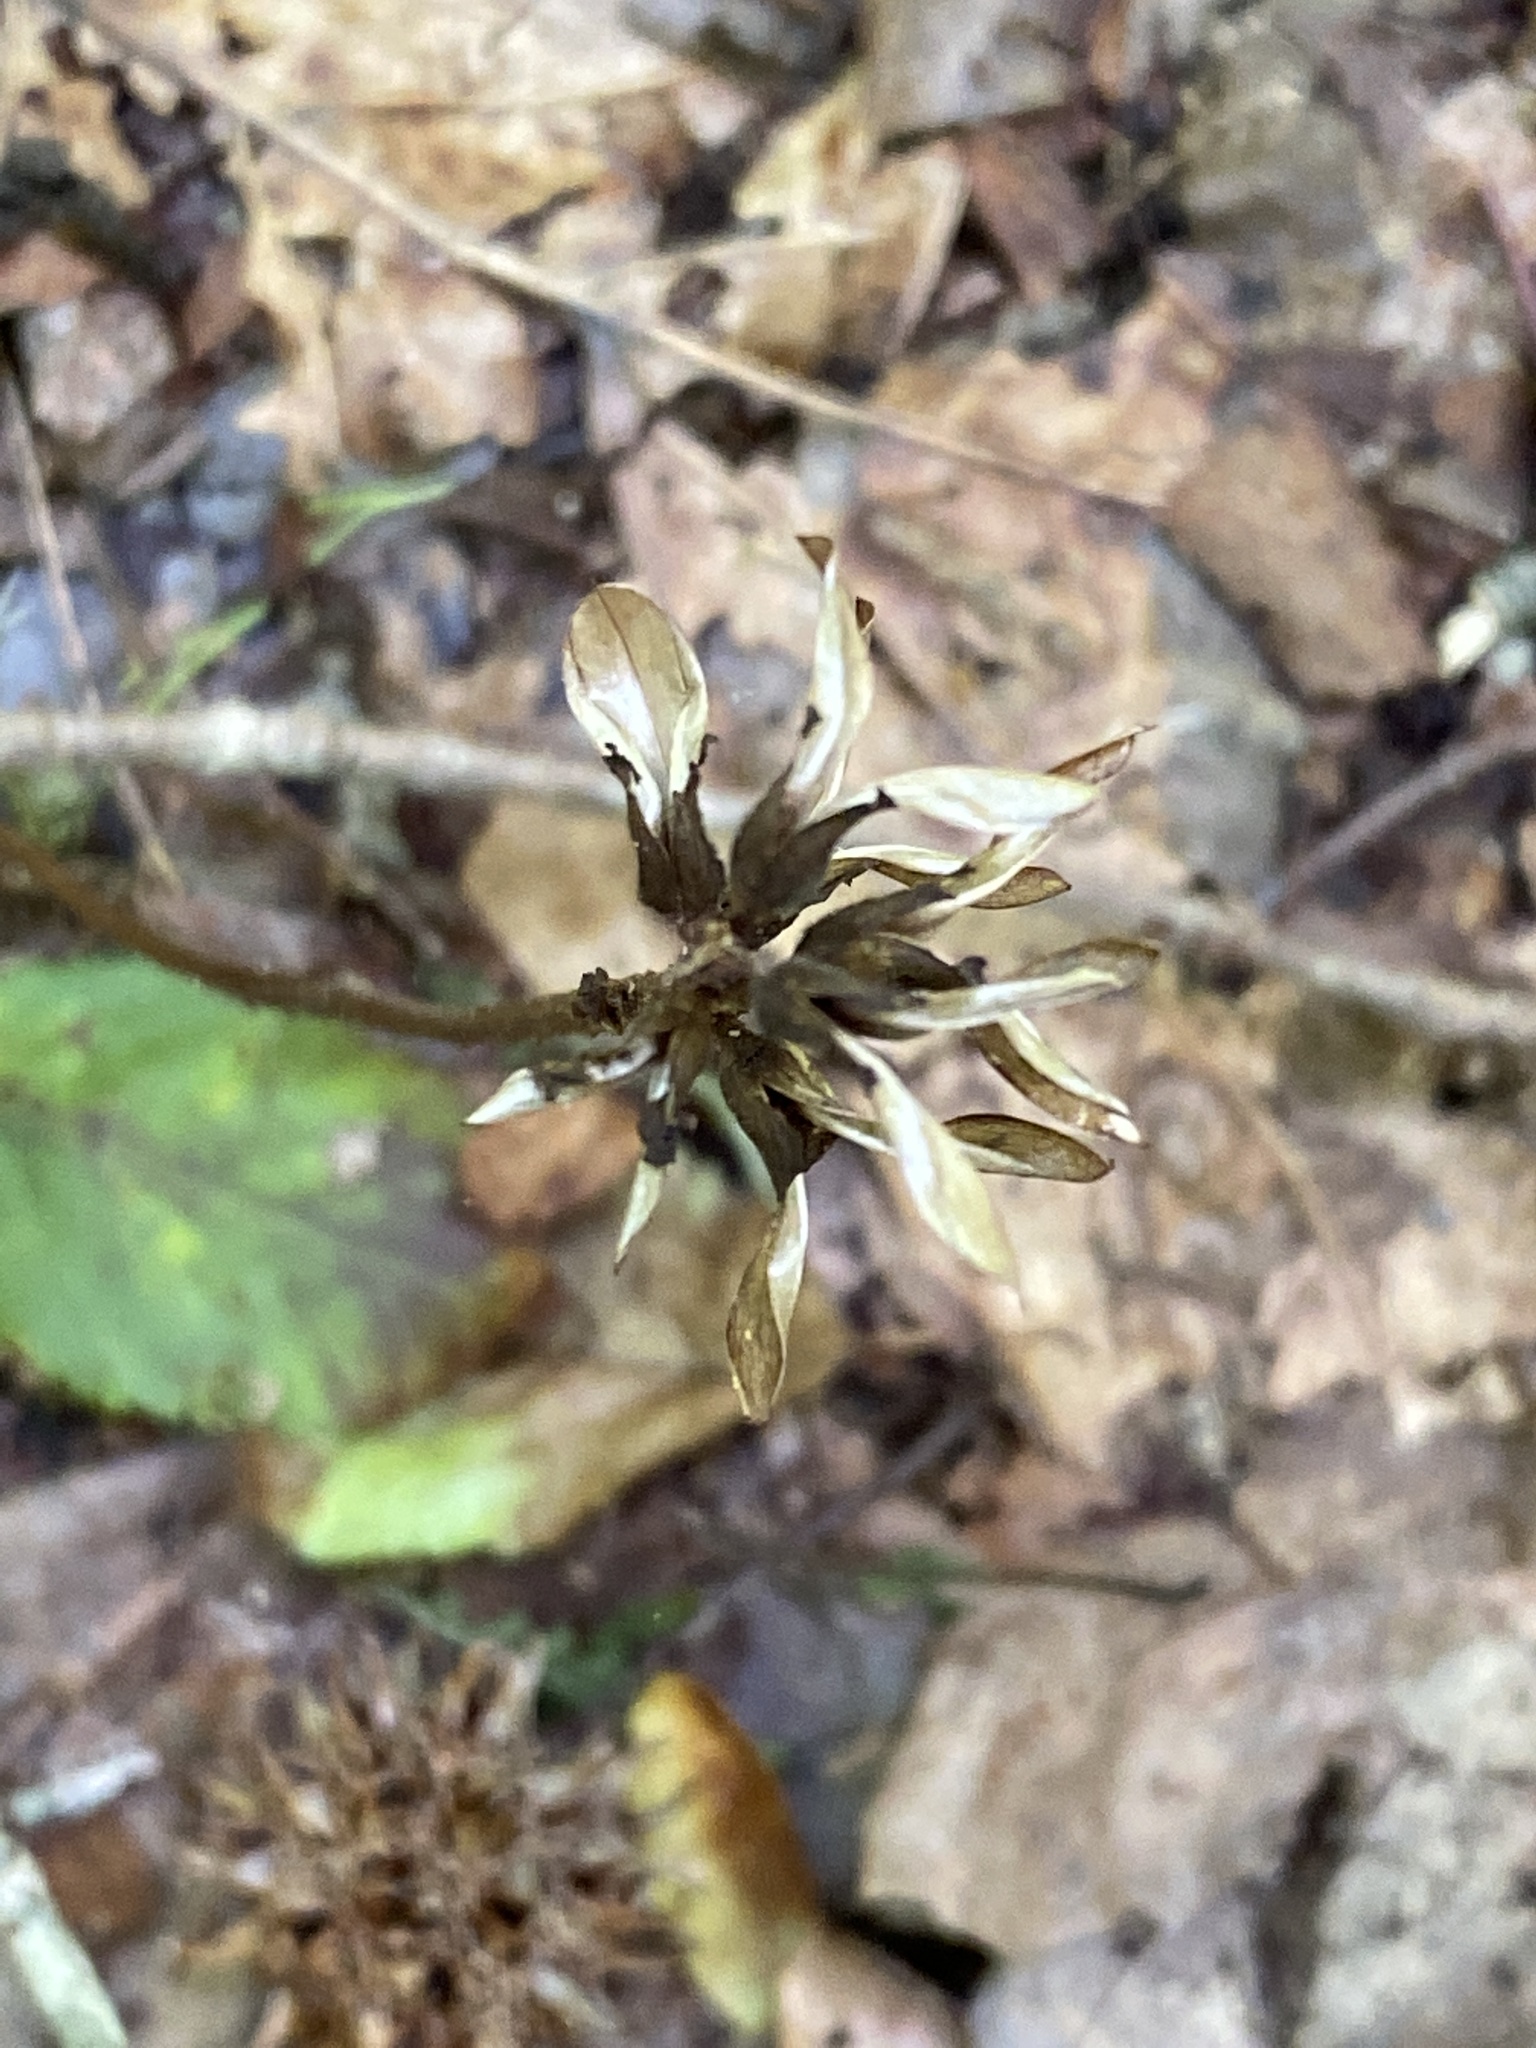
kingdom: Plantae
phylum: Tracheophyta
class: Magnoliopsida
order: Lamiales
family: Orobanchaceae
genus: Pedicularis
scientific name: Pedicularis canadensis
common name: Early lousewort
